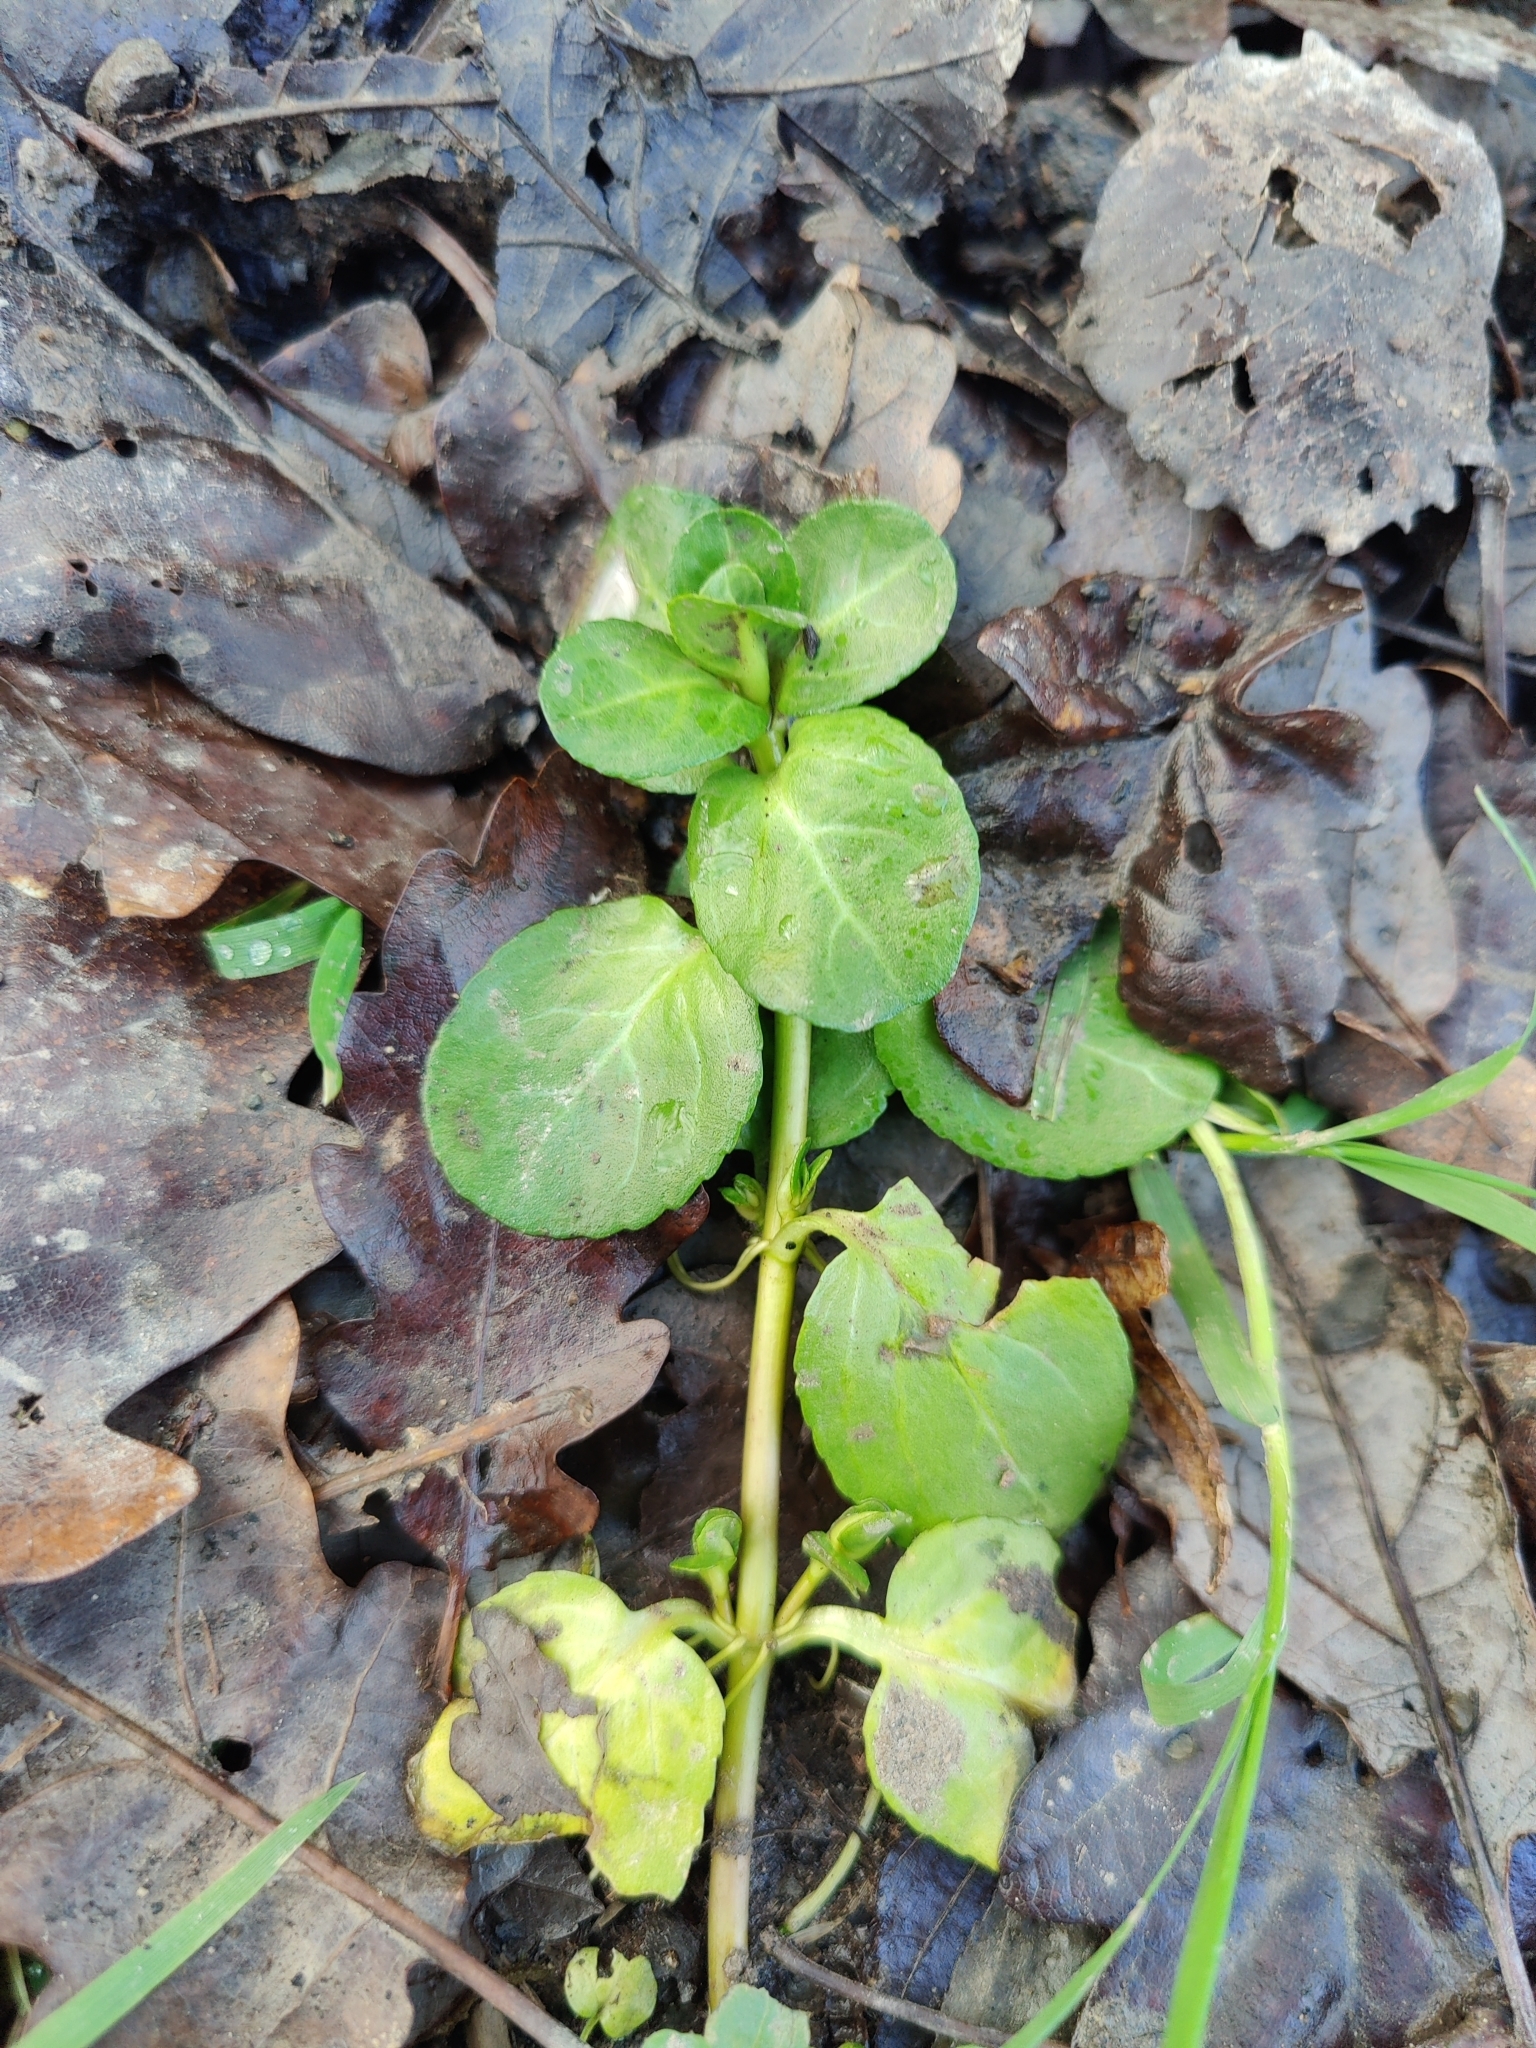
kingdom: Plantae
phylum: Tracheophyta
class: Magnoliopsida
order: Lamiales
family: Plantaginaceae
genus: Veronica
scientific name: Veronica beccabunga
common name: Brooklime
